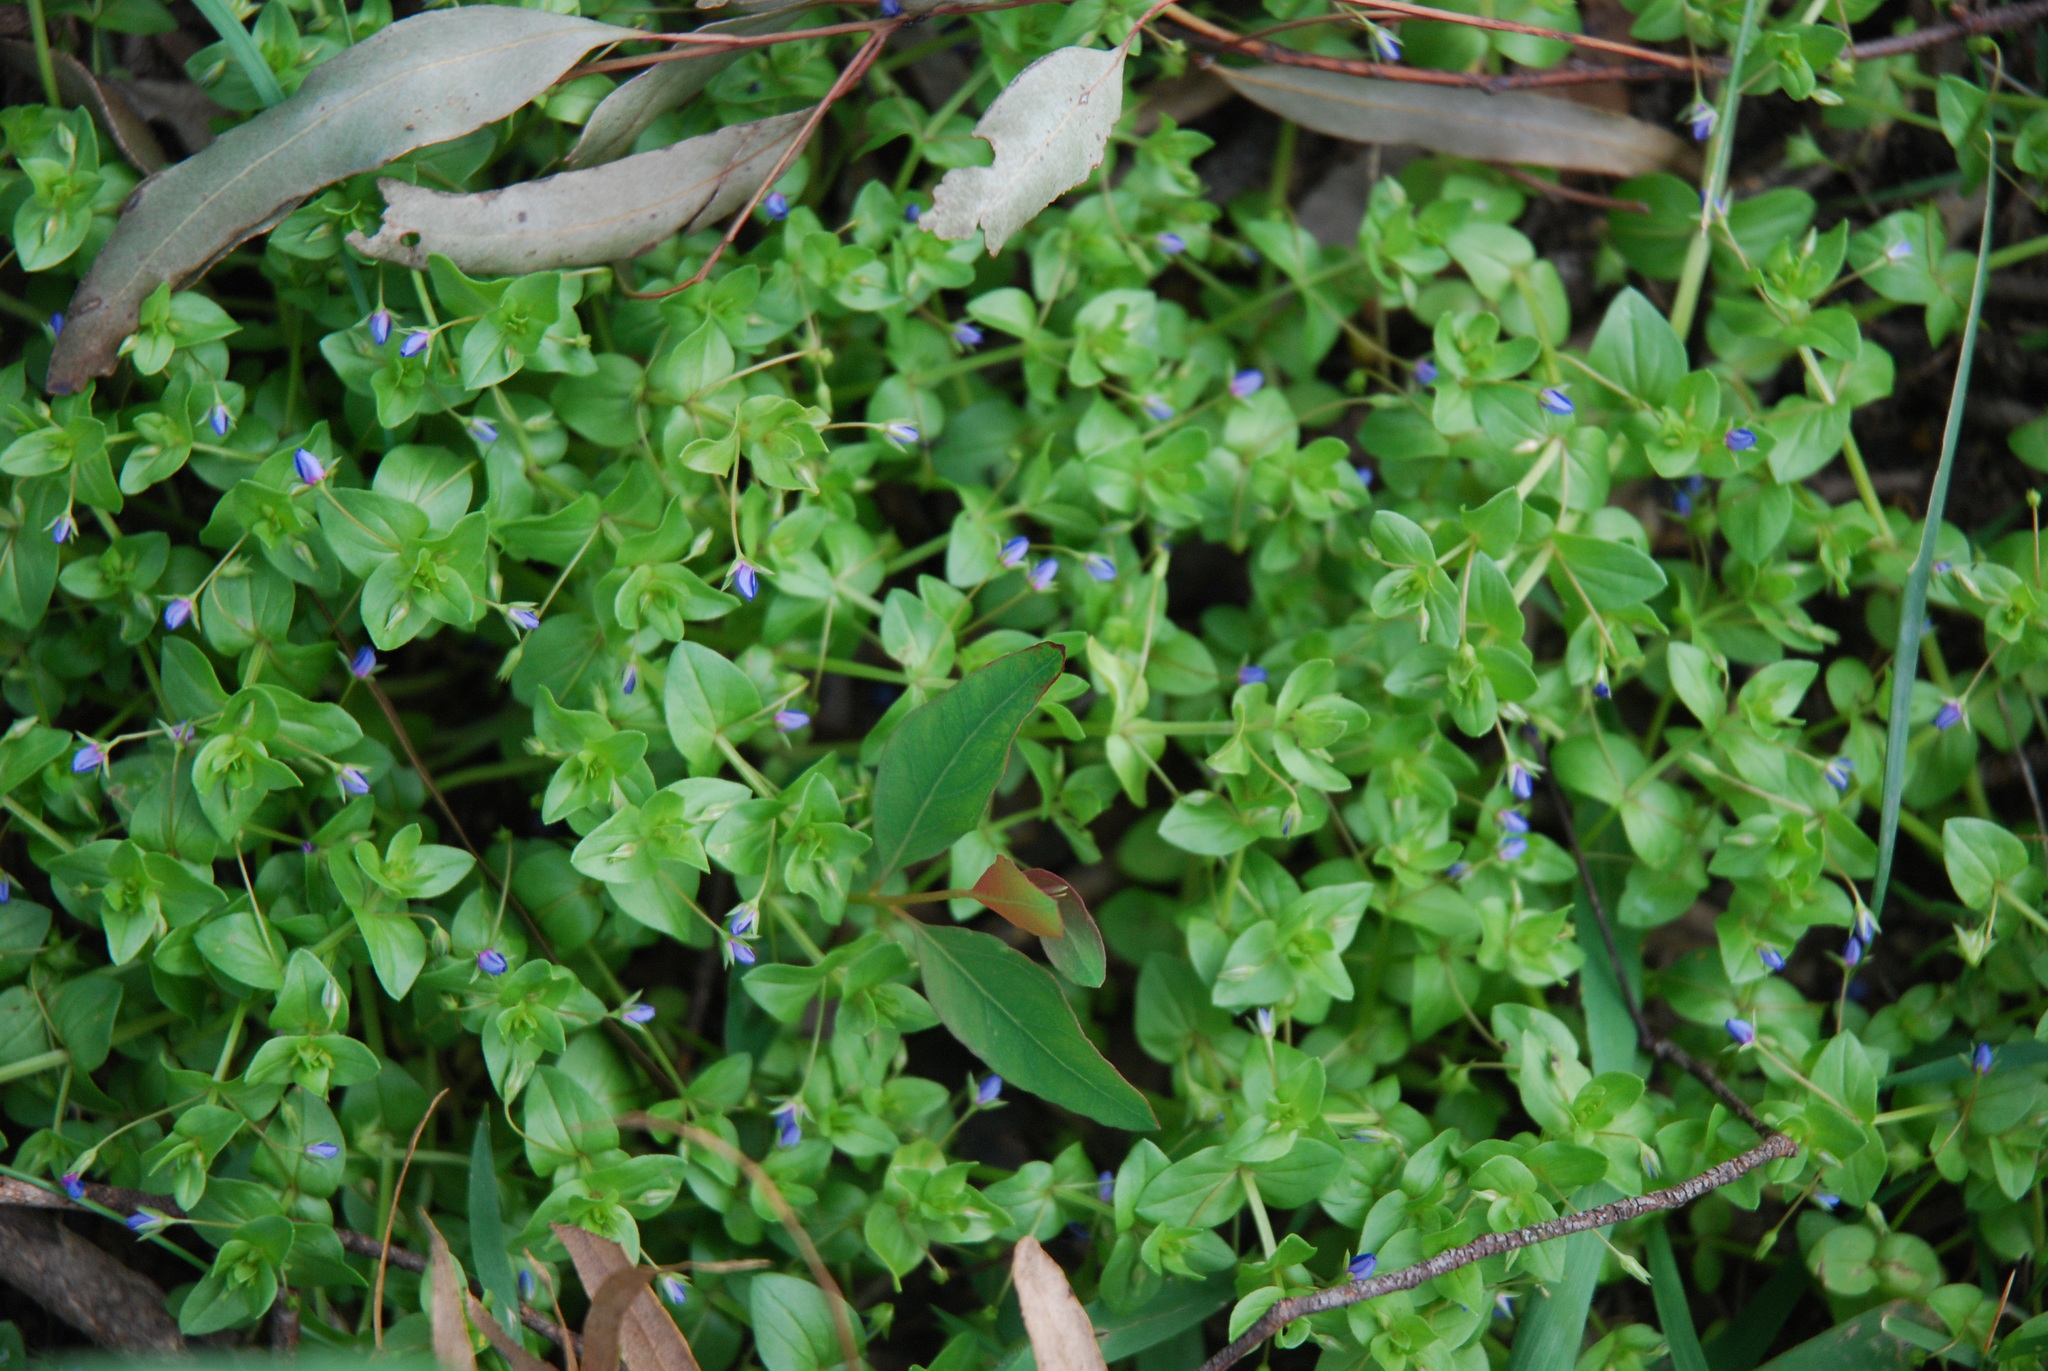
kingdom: Plantae
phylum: Tracheophyta
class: Magnoliopsida
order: Ericales
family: Primulaceae
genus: Lysimachia
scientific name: Lysimachia loeflingii
